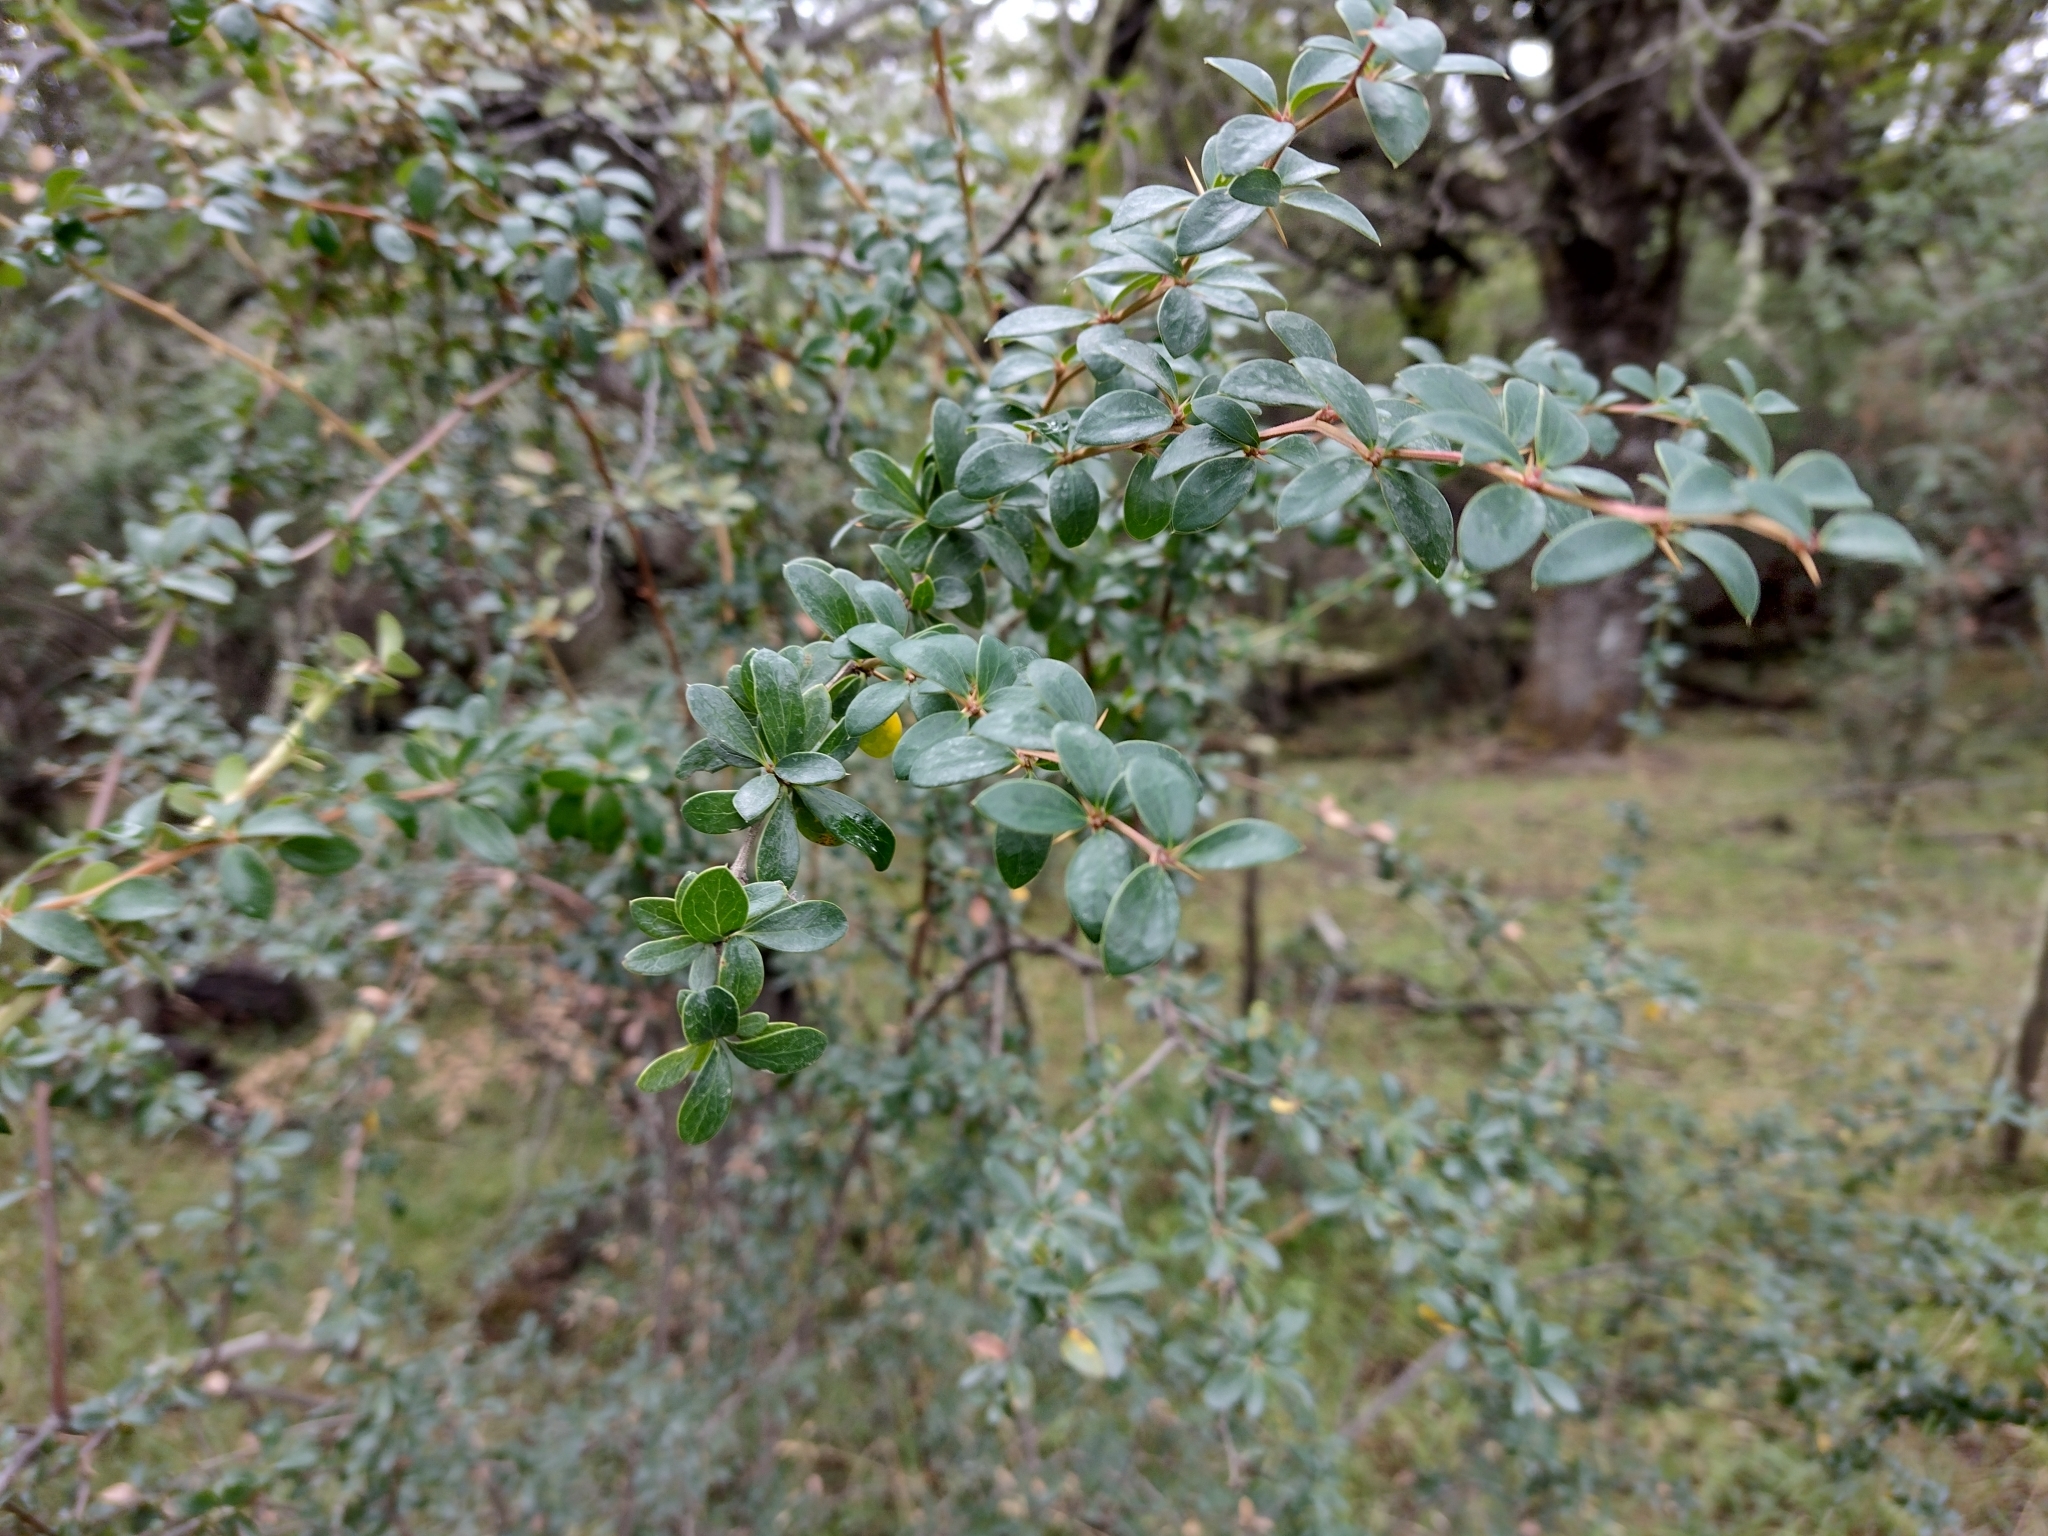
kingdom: Plantae
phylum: Tracheophyta
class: Magnoliopsida
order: Ranunculales
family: Berberidaceae
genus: Berberis
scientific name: Berberis microphylla
